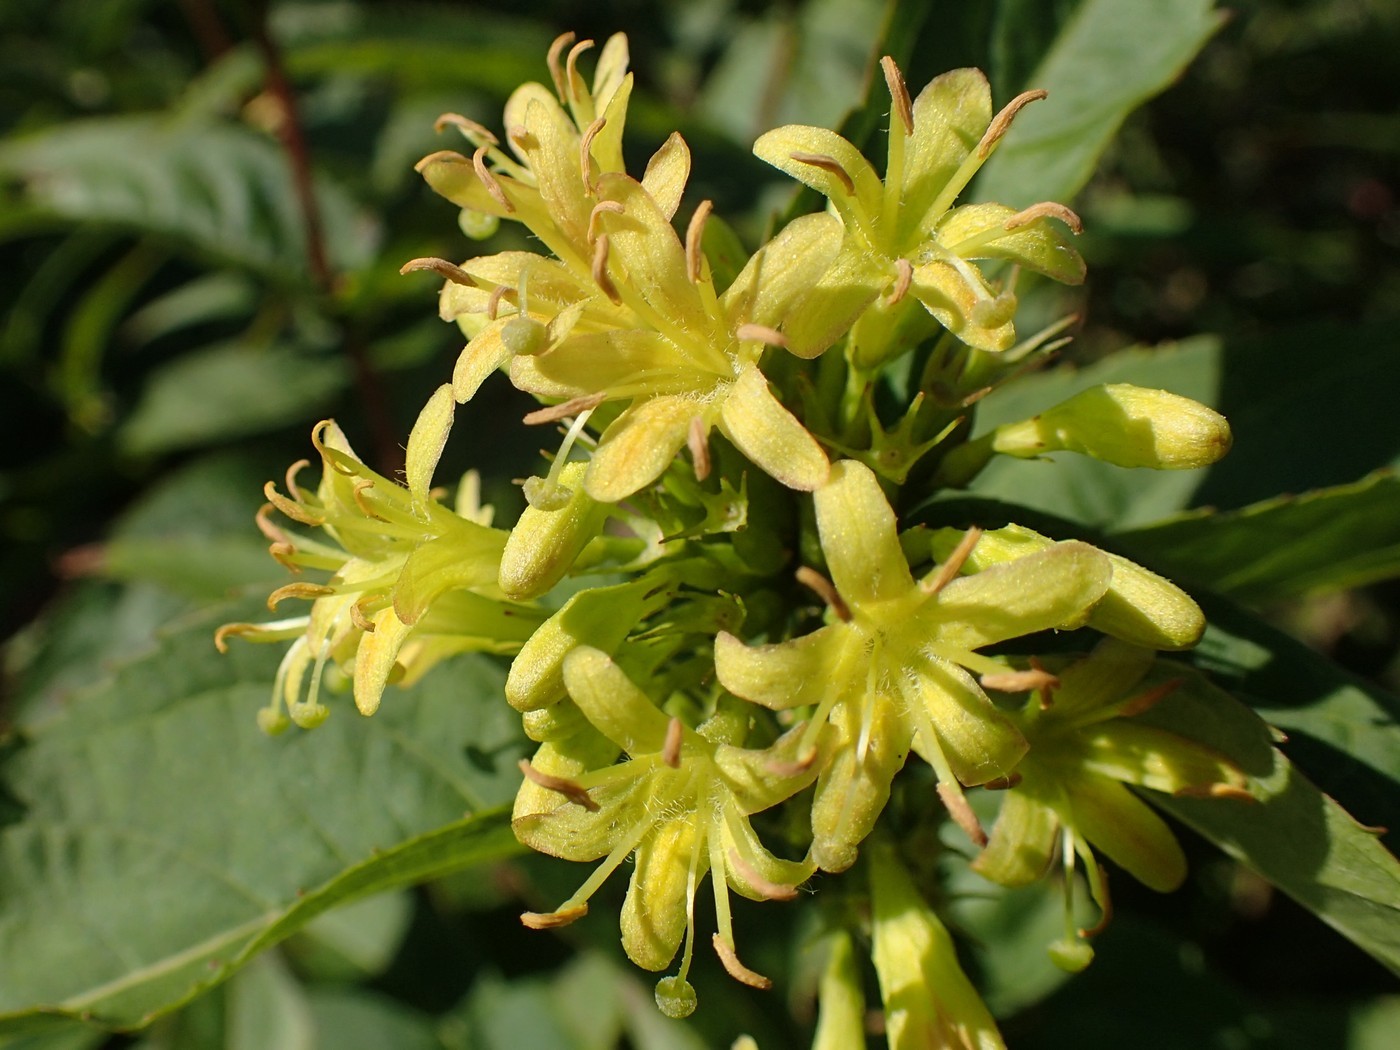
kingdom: Plantae
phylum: Tracheophyta
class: Magnoliopsida
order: Dipsacales
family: Caprifoliaceae
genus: Diervilla
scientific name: Diervilla sessilifolia
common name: Bush-honeysuckle
